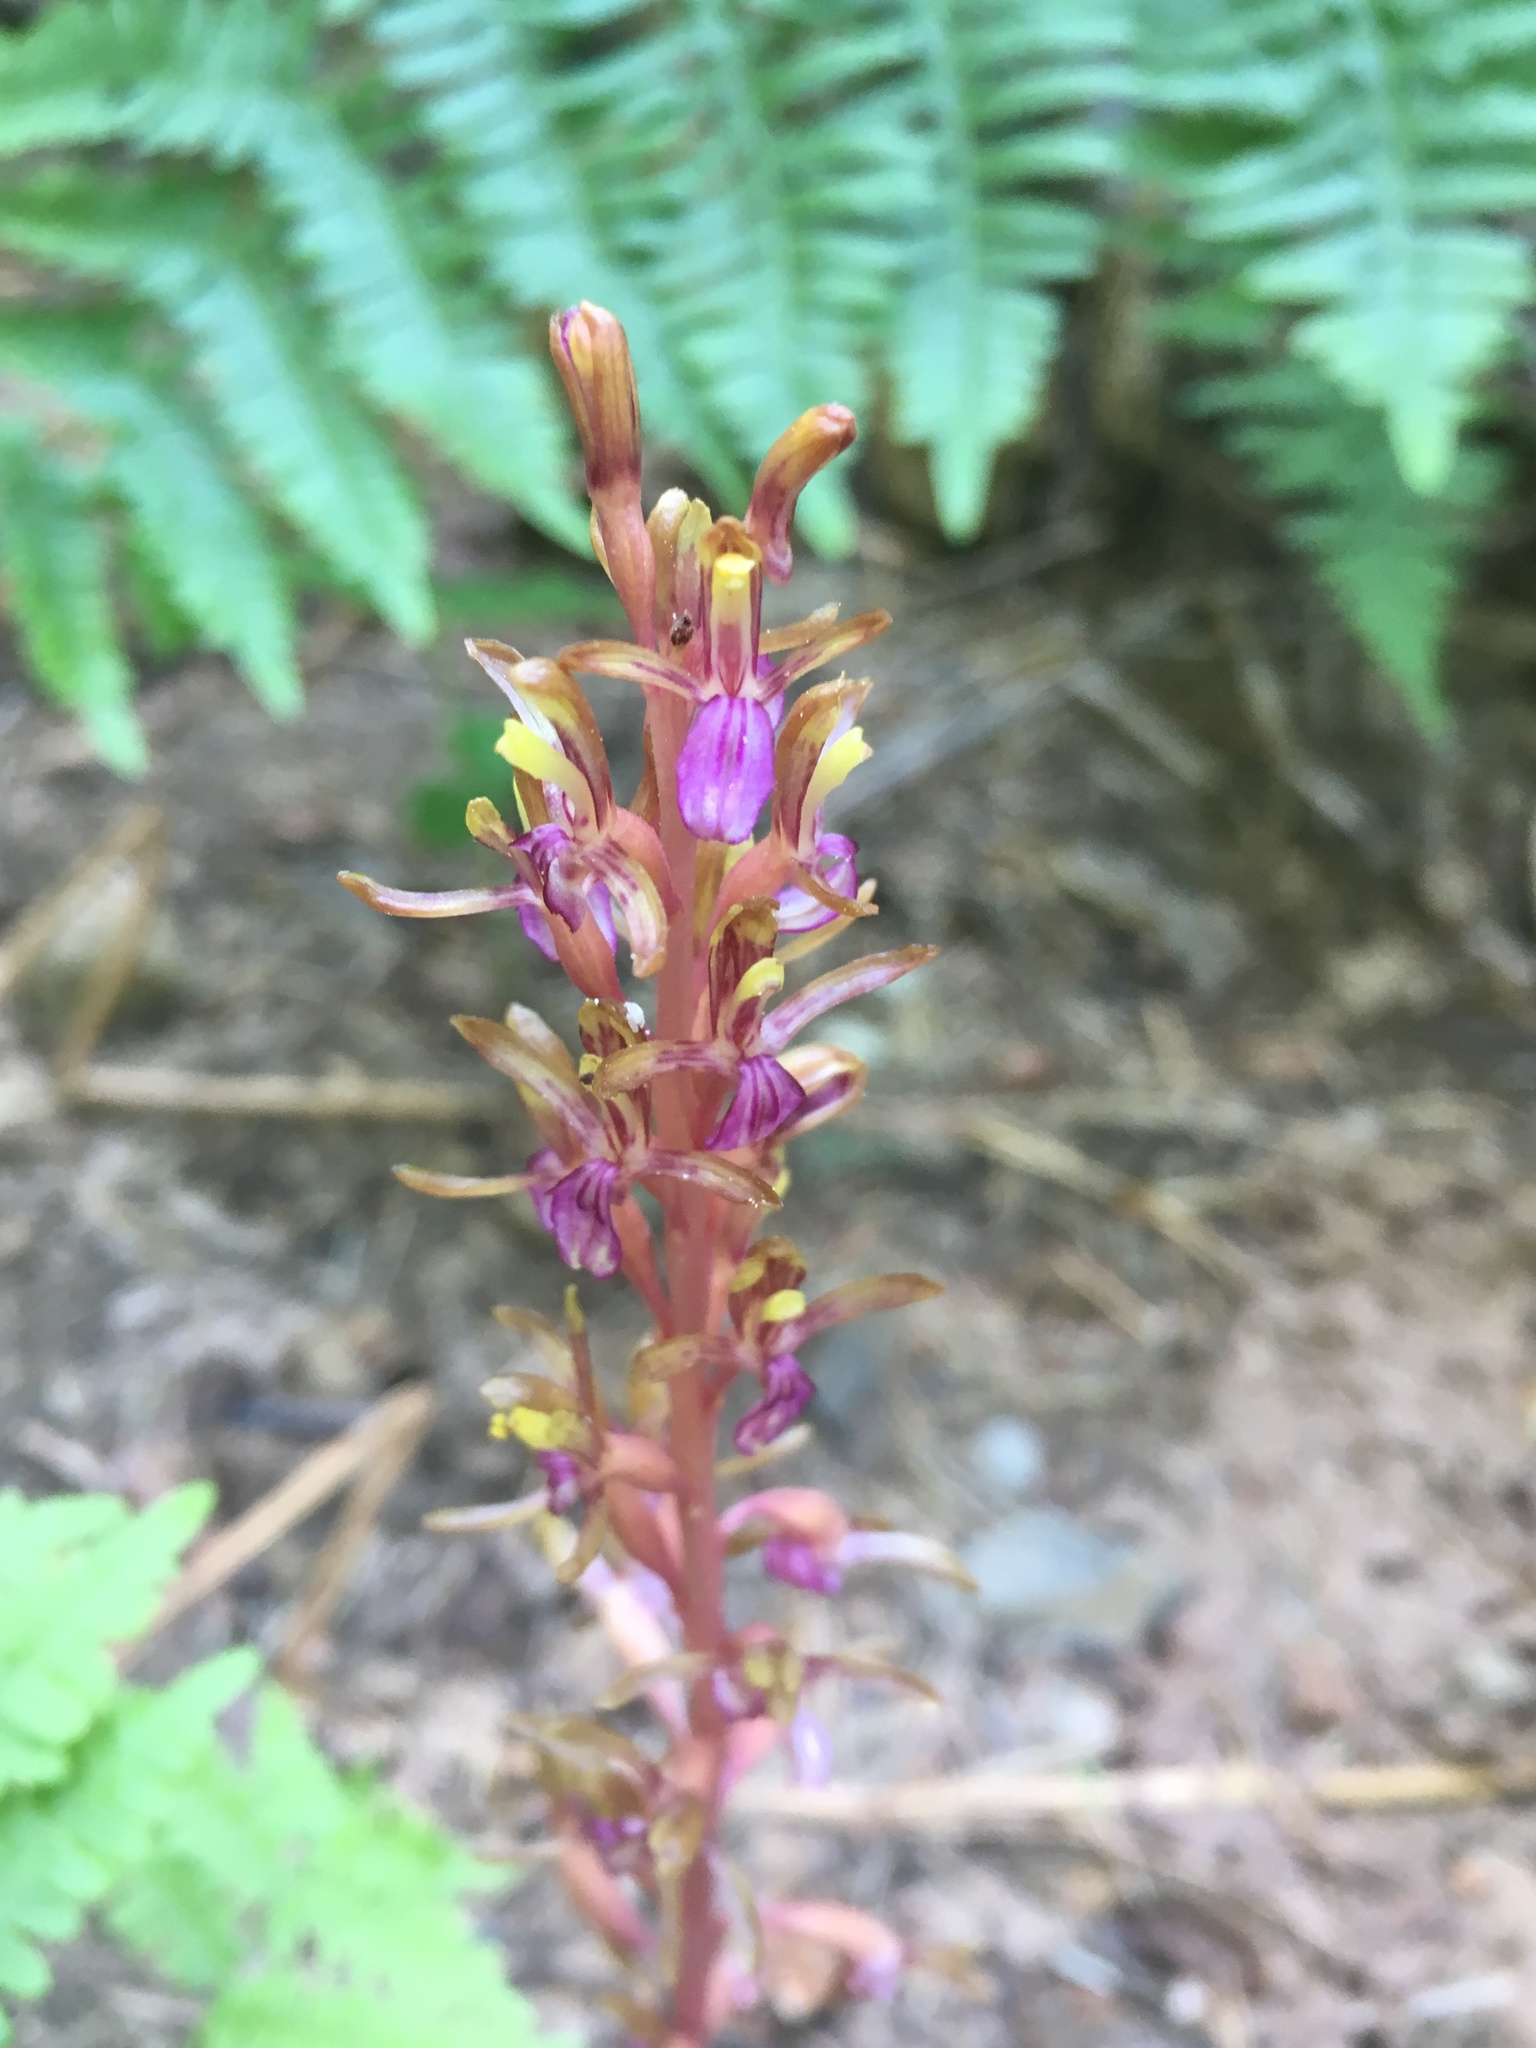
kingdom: Plantae
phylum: Tracheophyta
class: Liliopsida
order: Asparagales
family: Orchidaceae
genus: Corallorhiza
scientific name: Corallorhiza mertensiana
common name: Pacific coralroot
